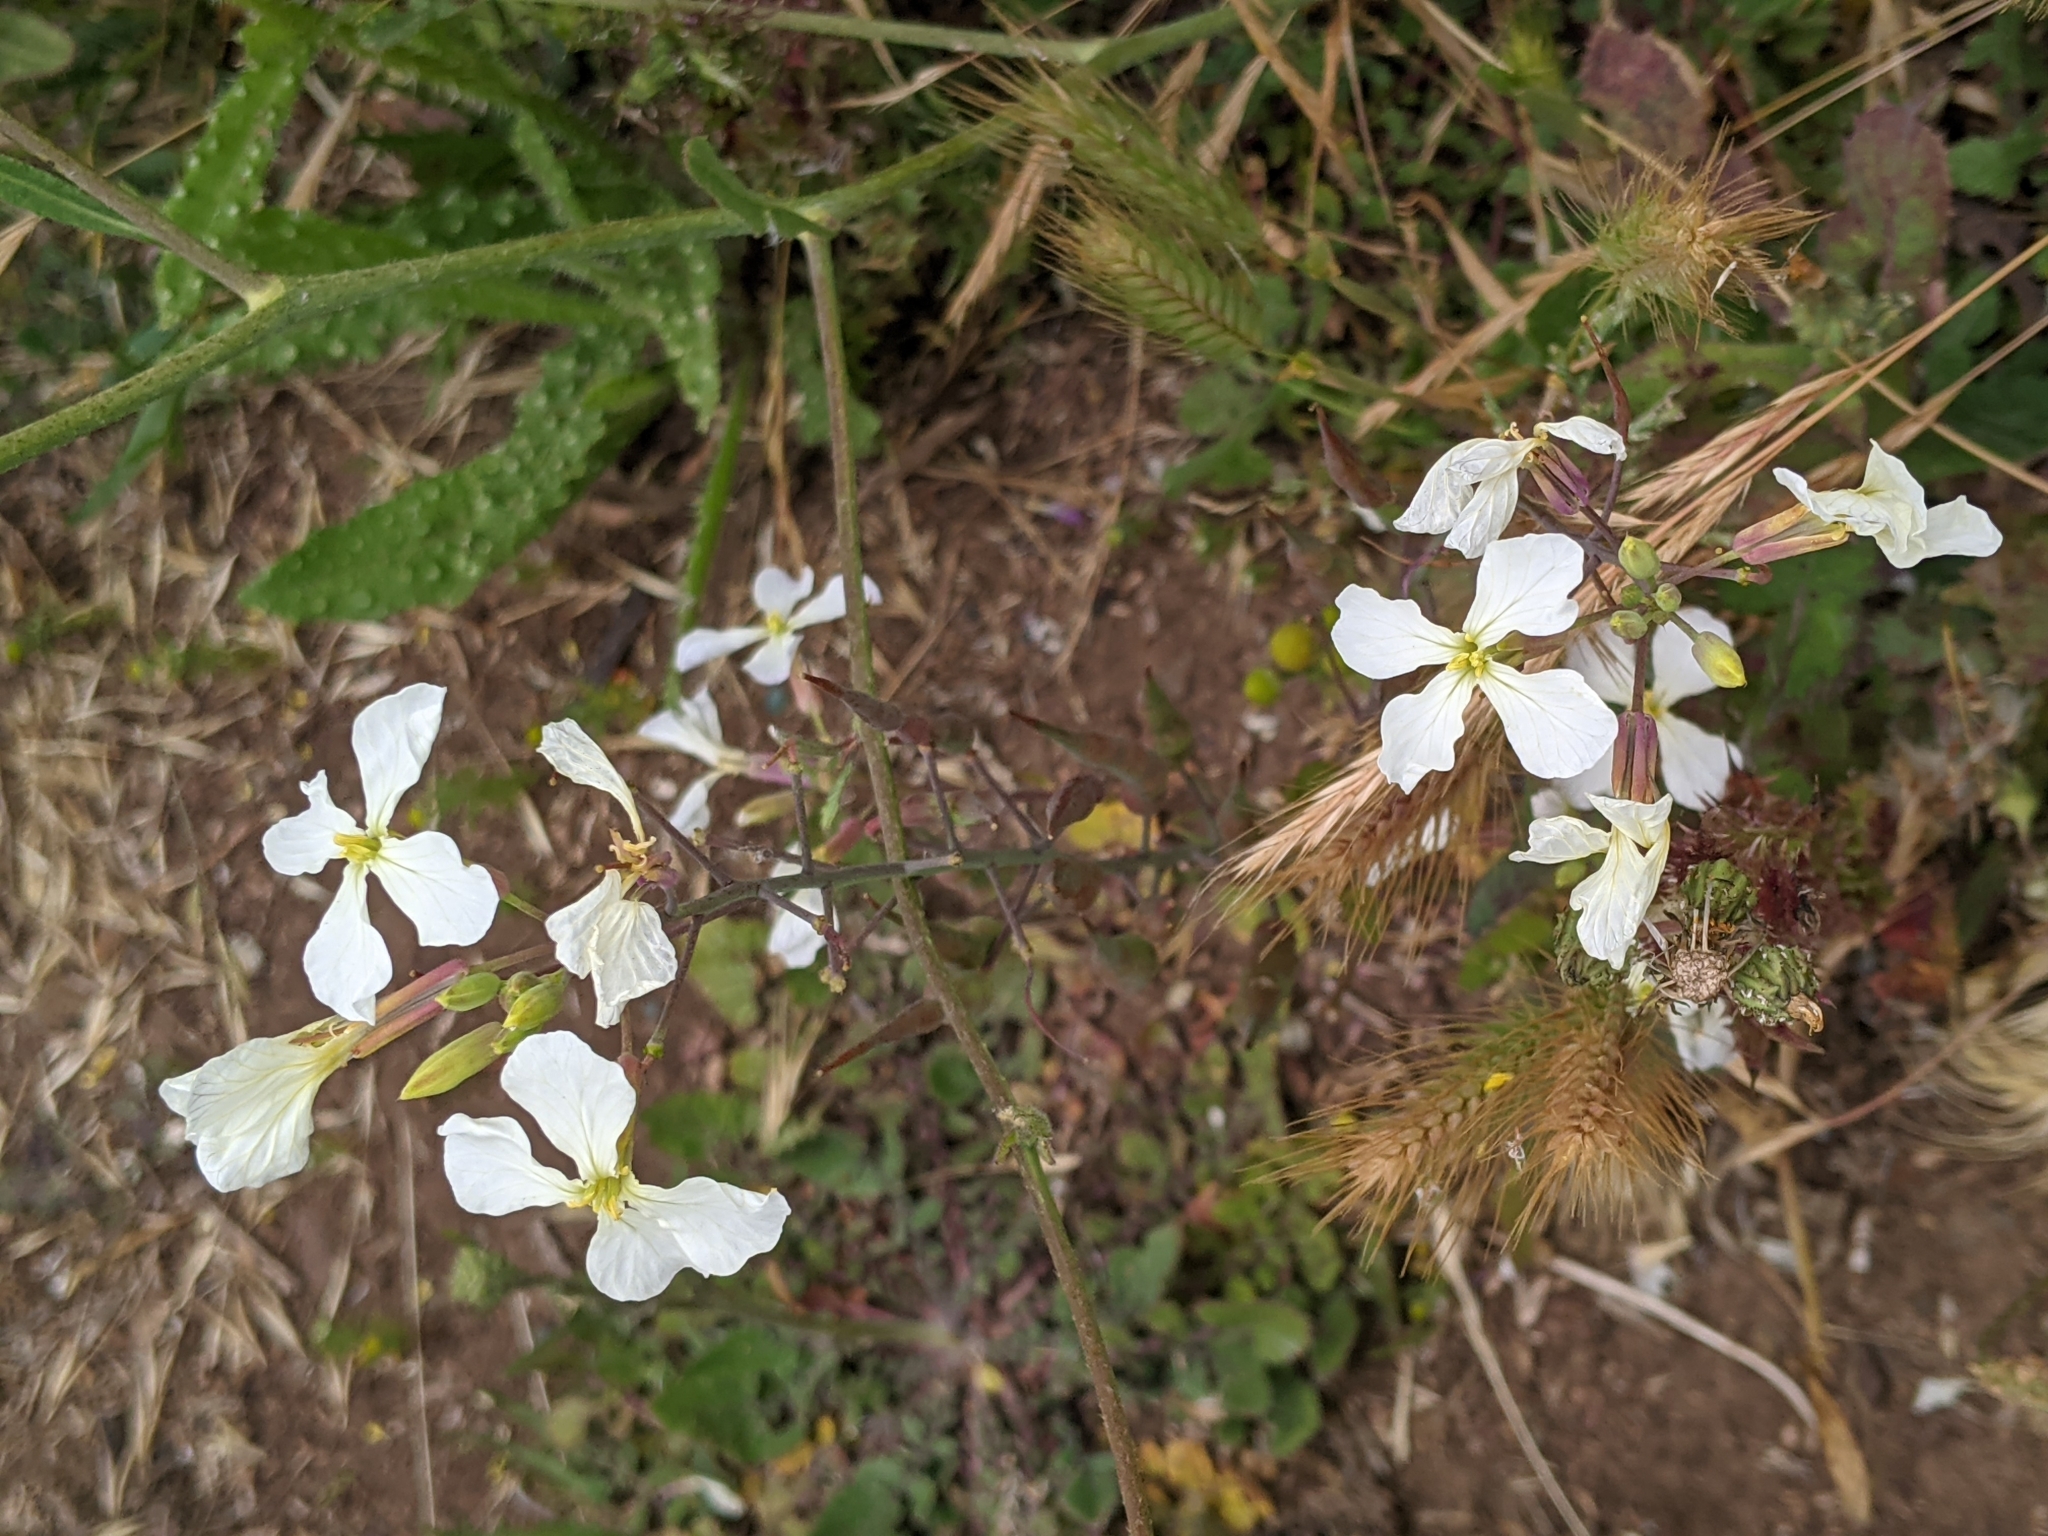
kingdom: Plantae
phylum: Tracheophyta
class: Magnoliopsida
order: Brassicales
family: Brassicaceae
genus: Raphanus
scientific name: Raphanus raphanistrum
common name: Wild radish
